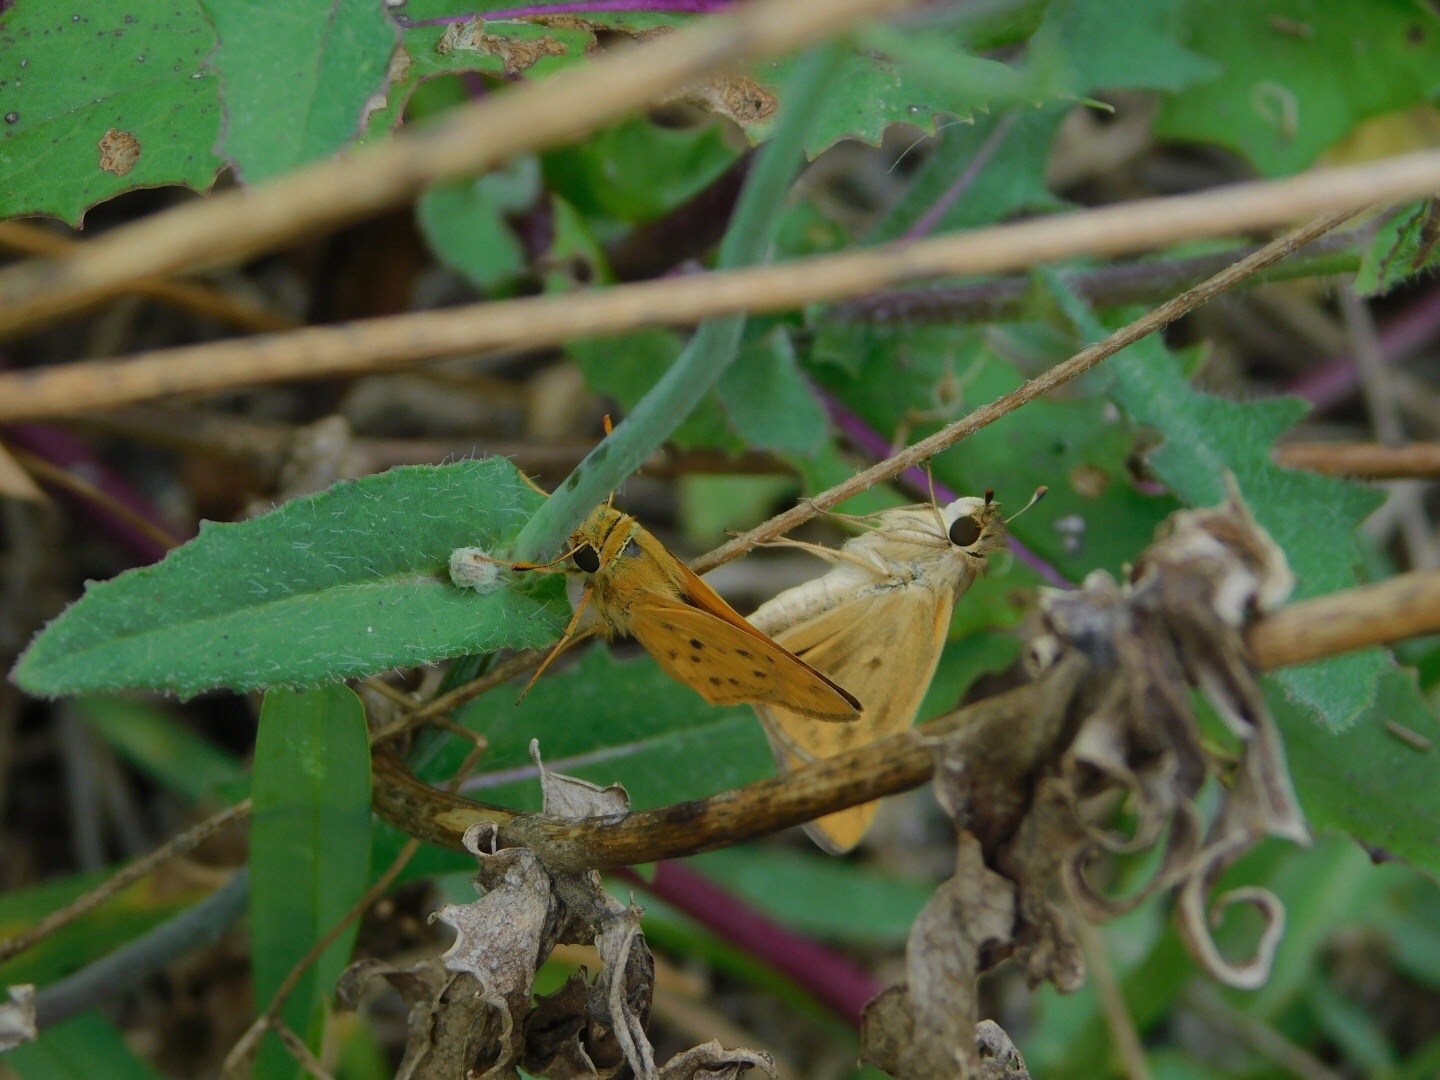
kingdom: Animalia
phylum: Arthropoda
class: Insecta
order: Lepidoptera
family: Hesperiidae
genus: Hylephila
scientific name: Hylephila phyleus
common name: Fiery skipper
